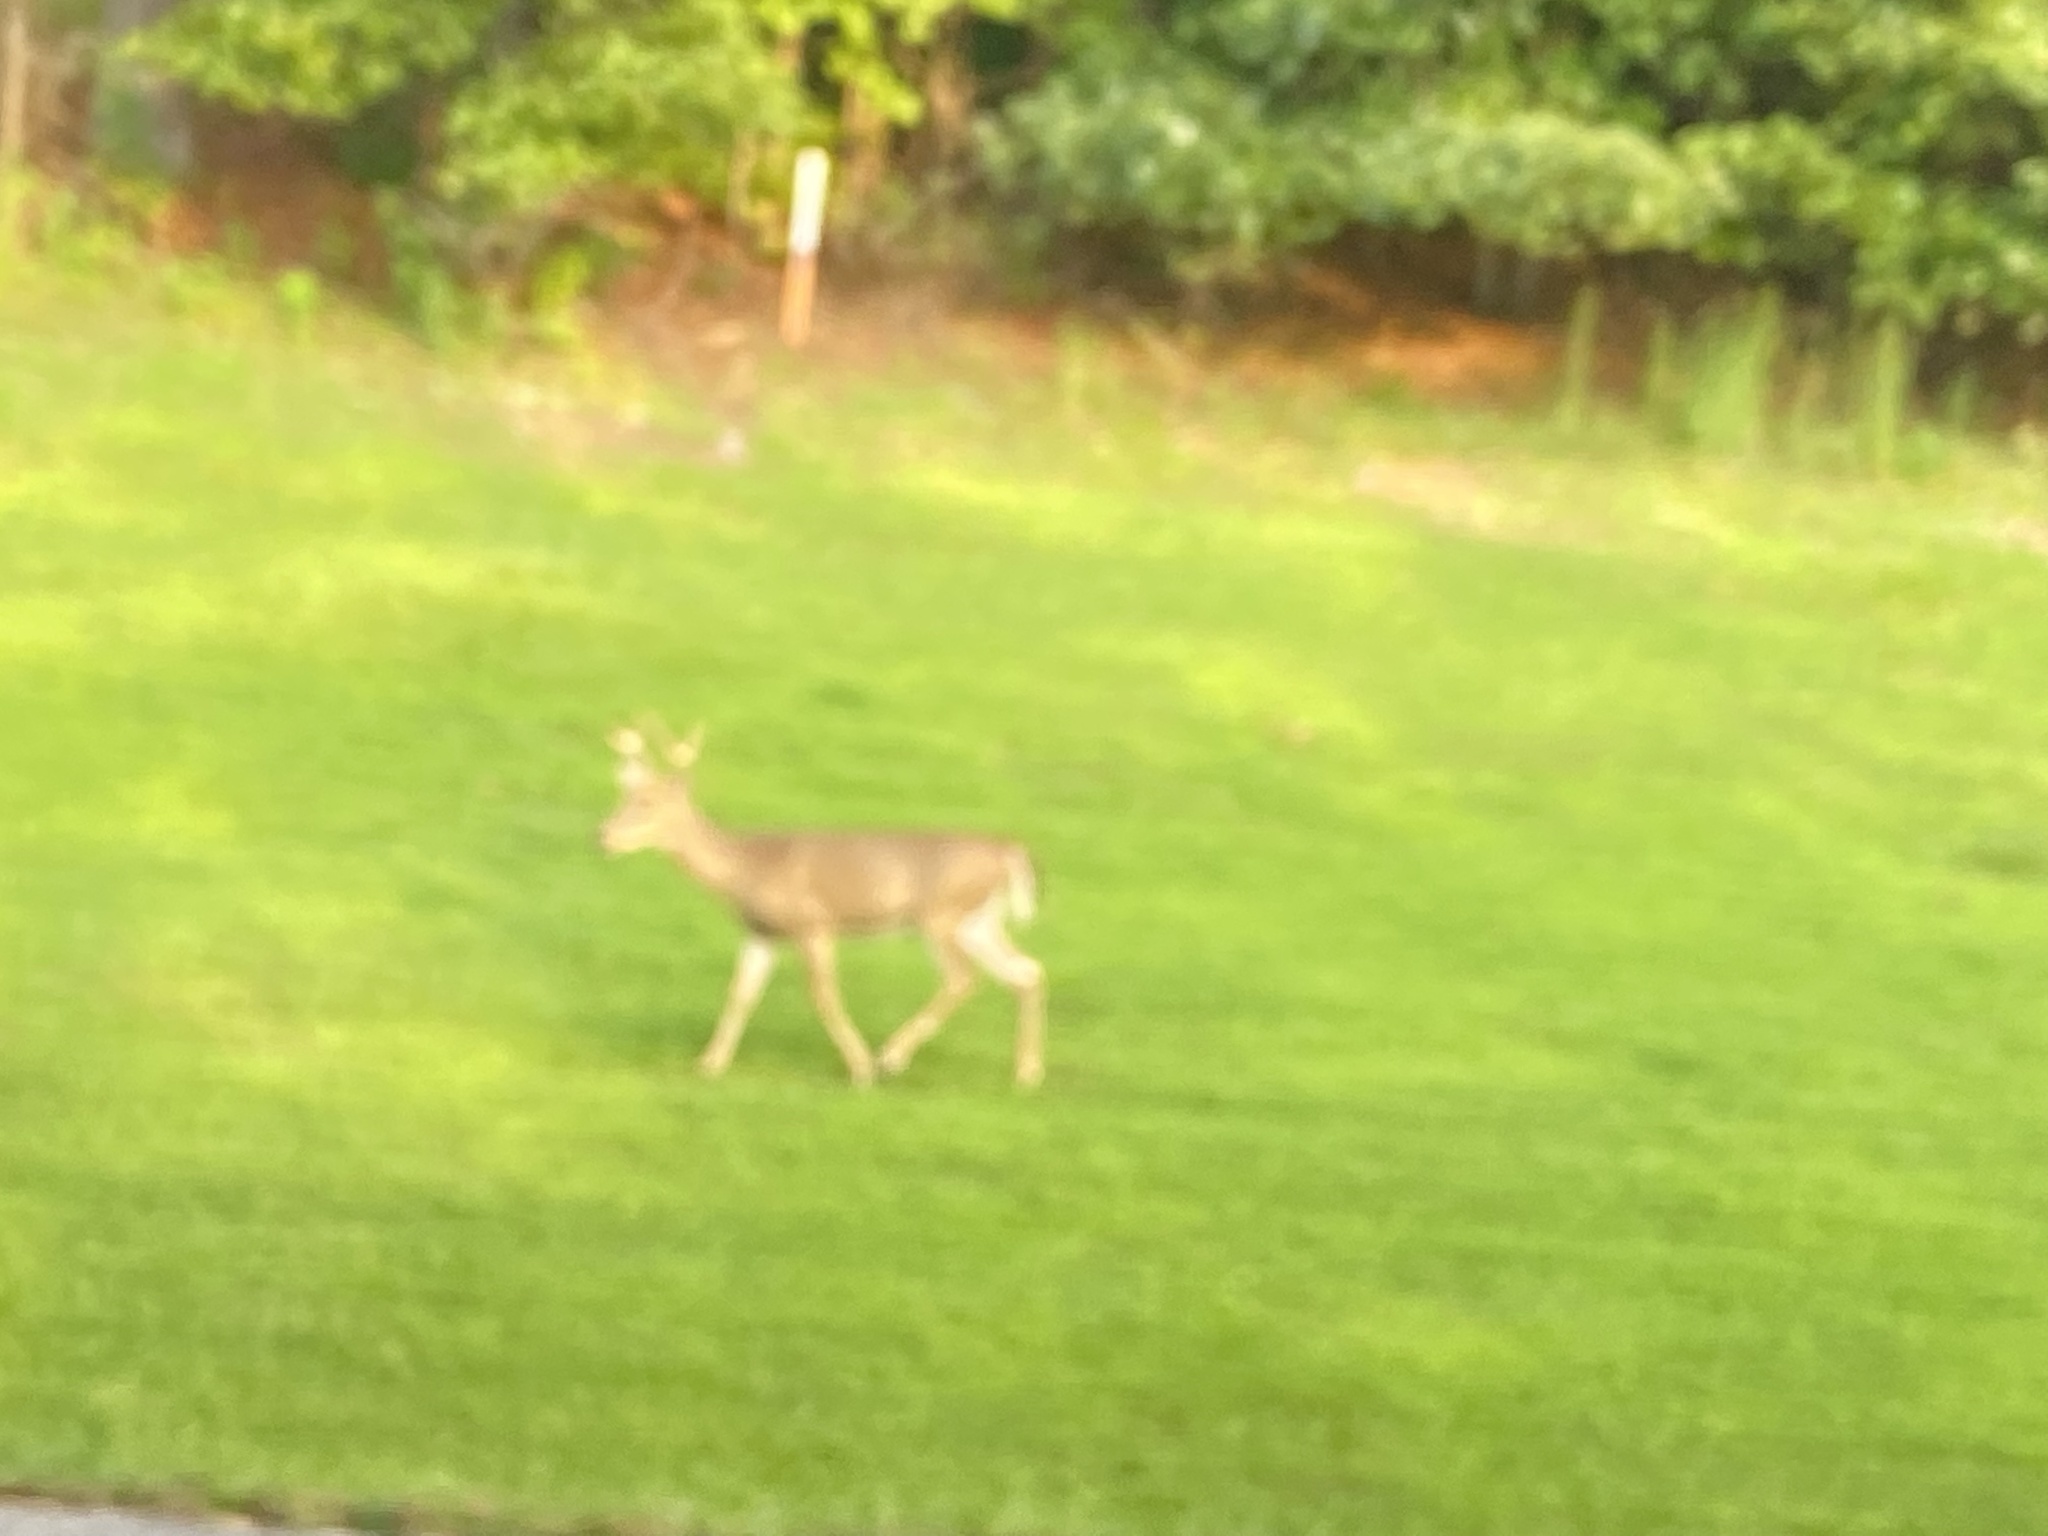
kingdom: Animalia
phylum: Chordata
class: Mammalia
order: Artiodactyla
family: Cervidae
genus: Odocoileus
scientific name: Odocoileus virginianus
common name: White-tailed deer
